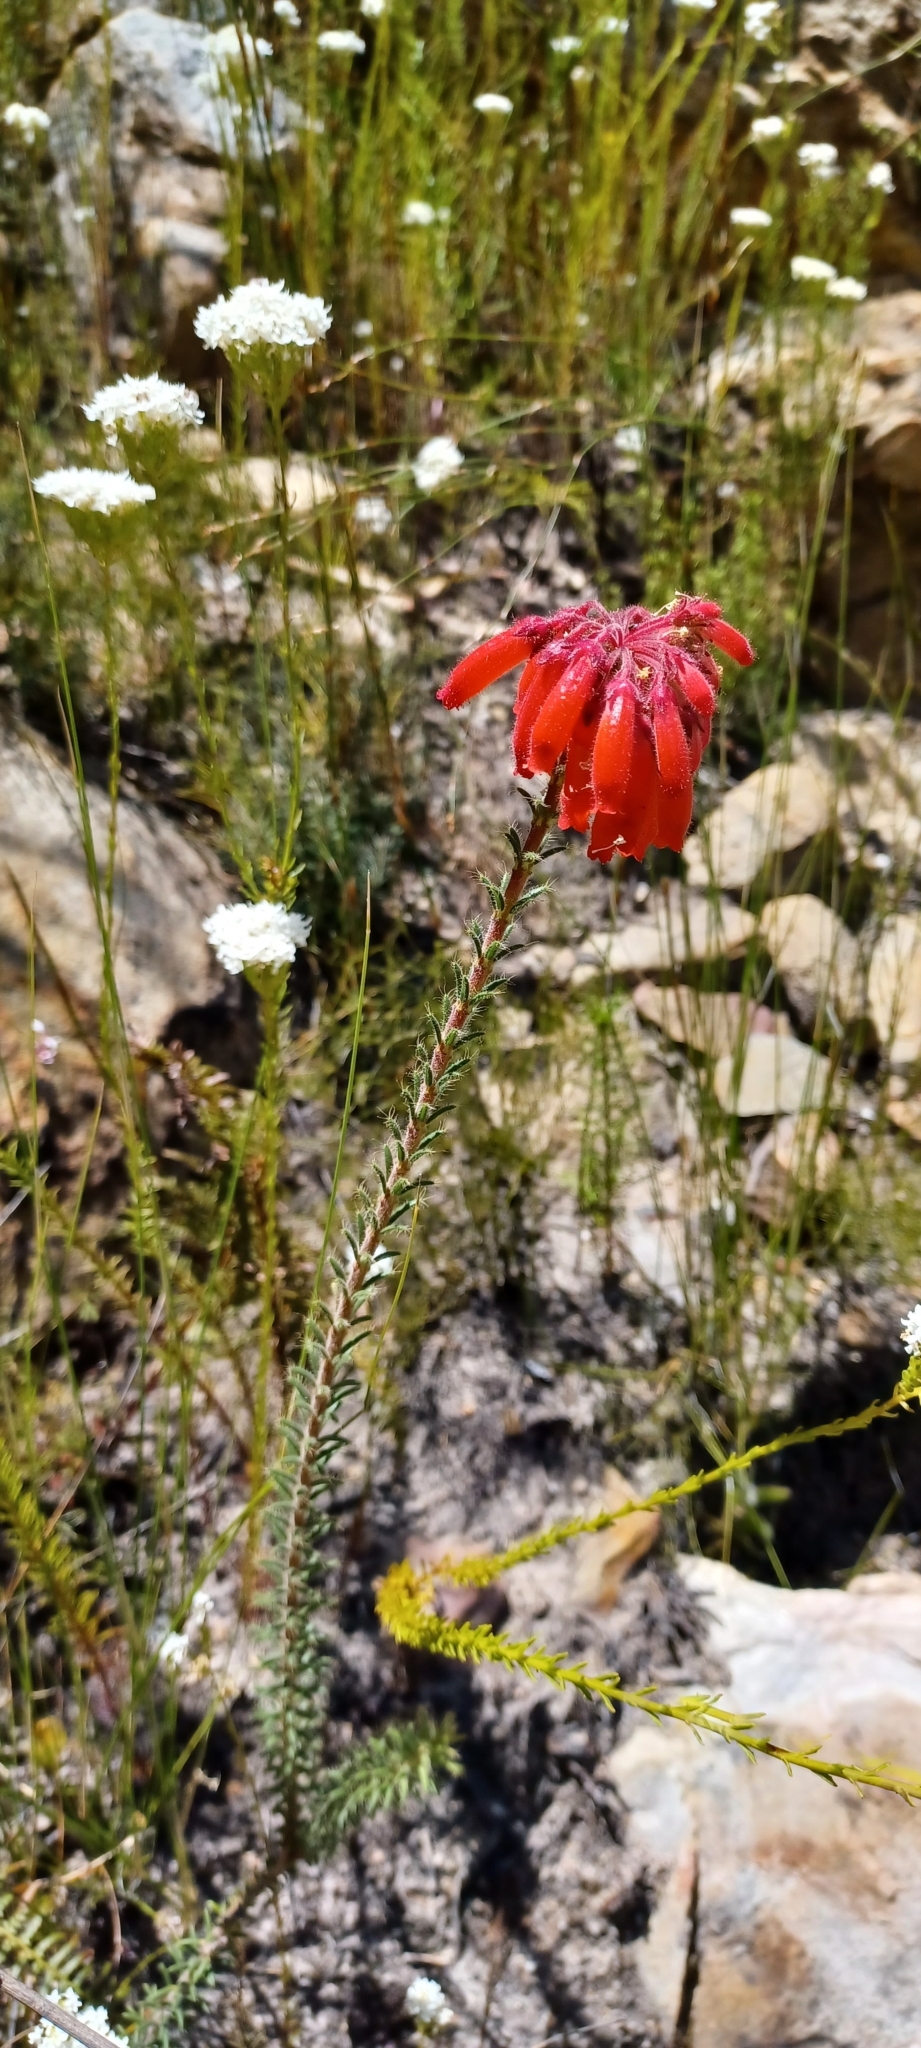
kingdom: Plantae
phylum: Tracheophyta
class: Magnoliopsida
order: Ericales
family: Ericaceae
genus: Erica
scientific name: Erica cerinthoides
